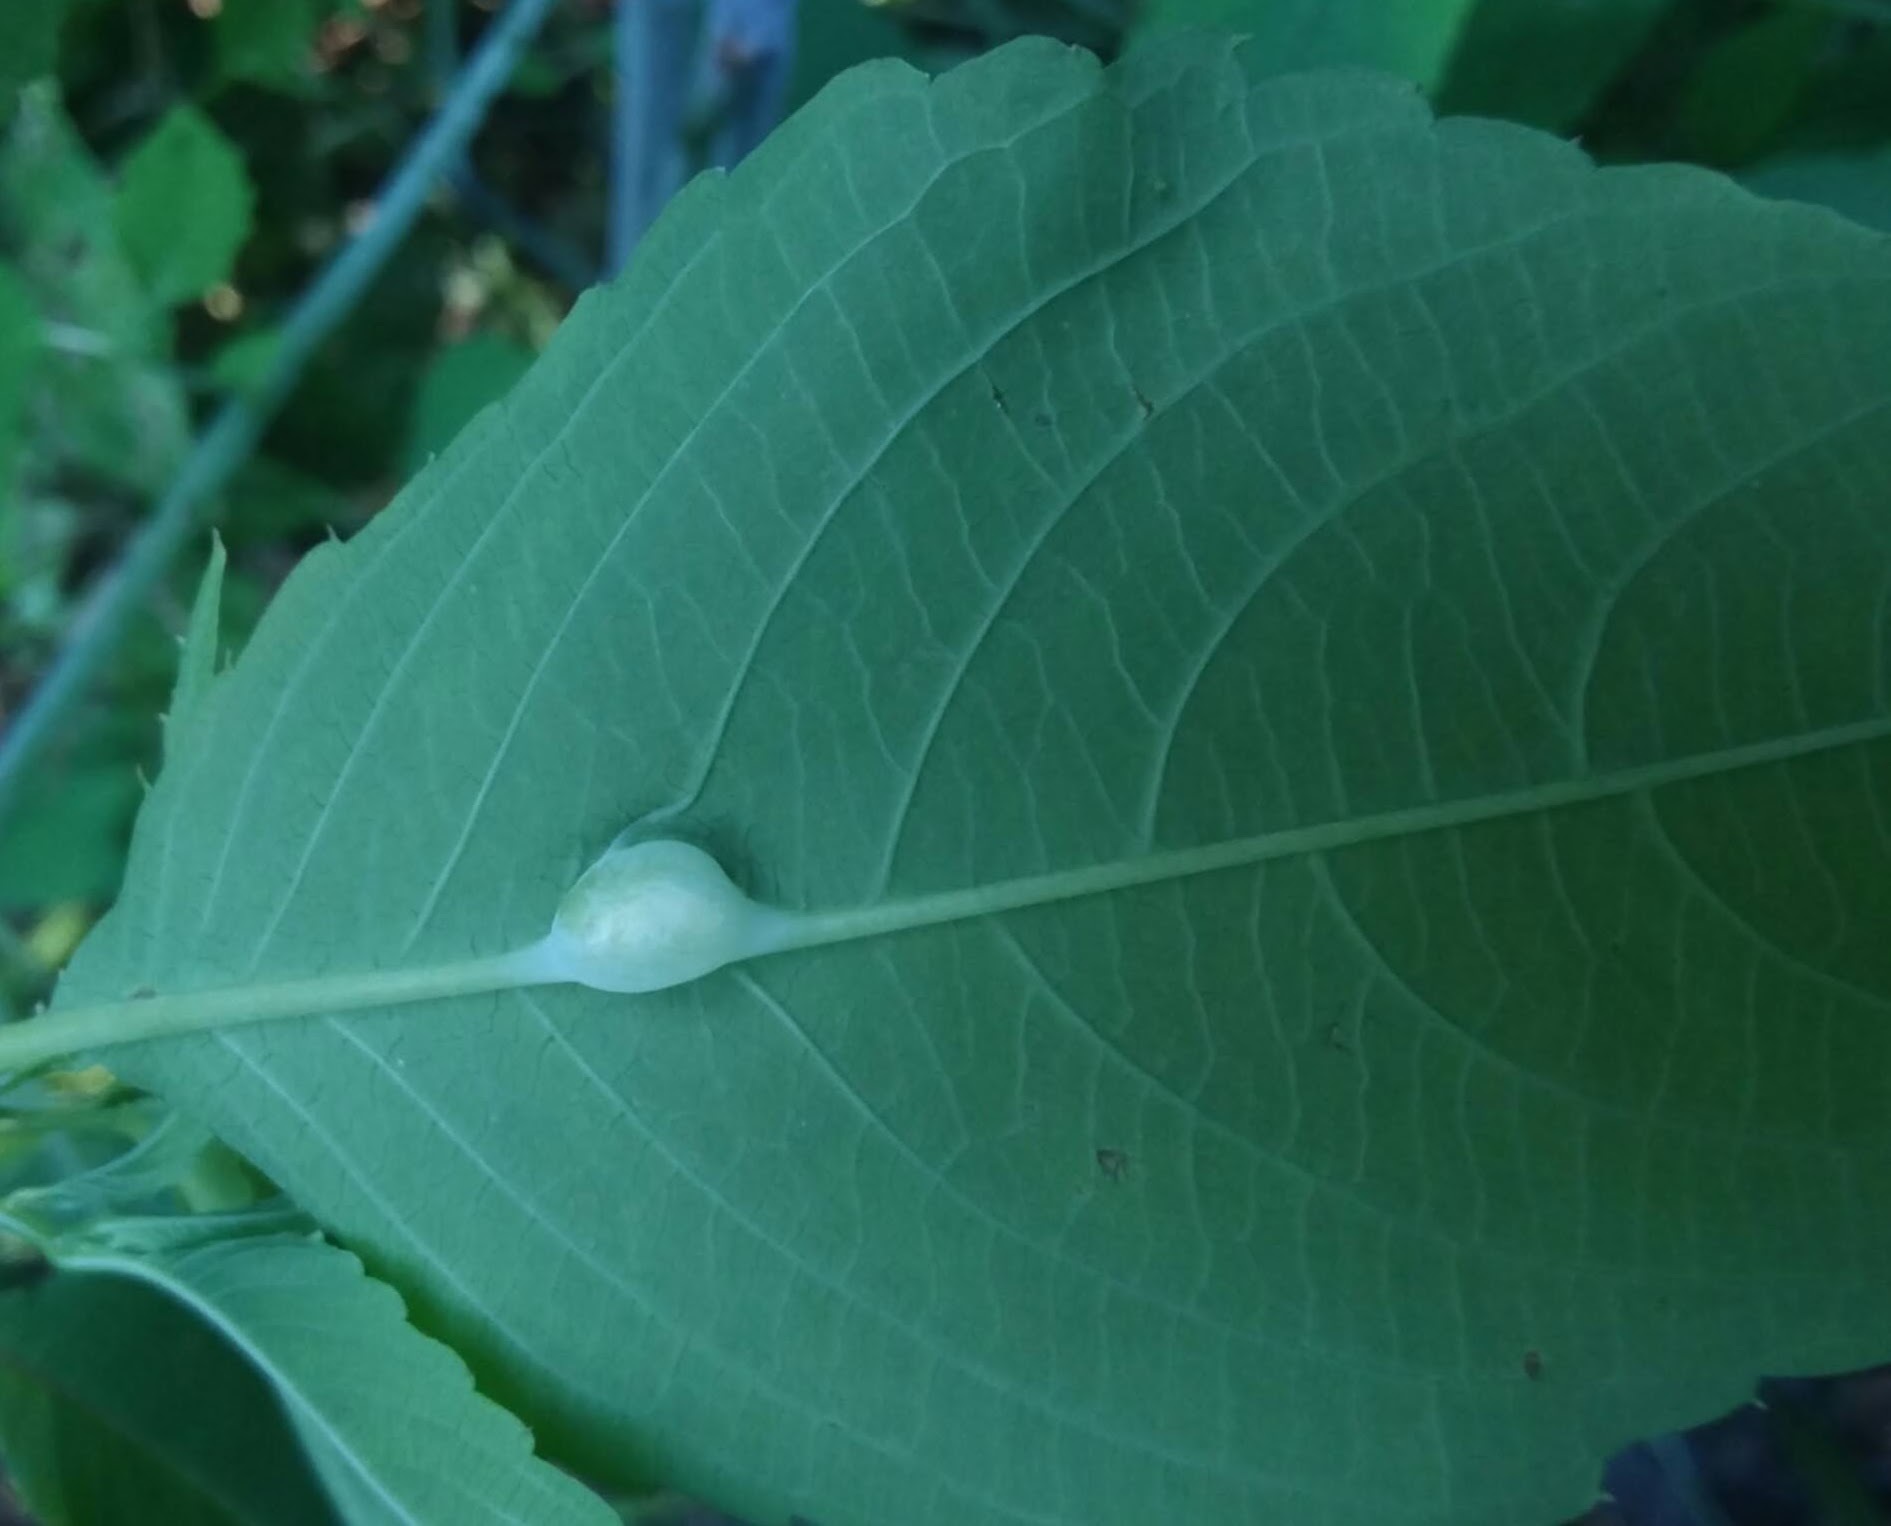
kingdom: Animalia
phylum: Arthropoda
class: Insecta
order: Diptera
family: Cecidomyiidae
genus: Neolasioptera
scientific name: Neolasioptera impatientifolia
